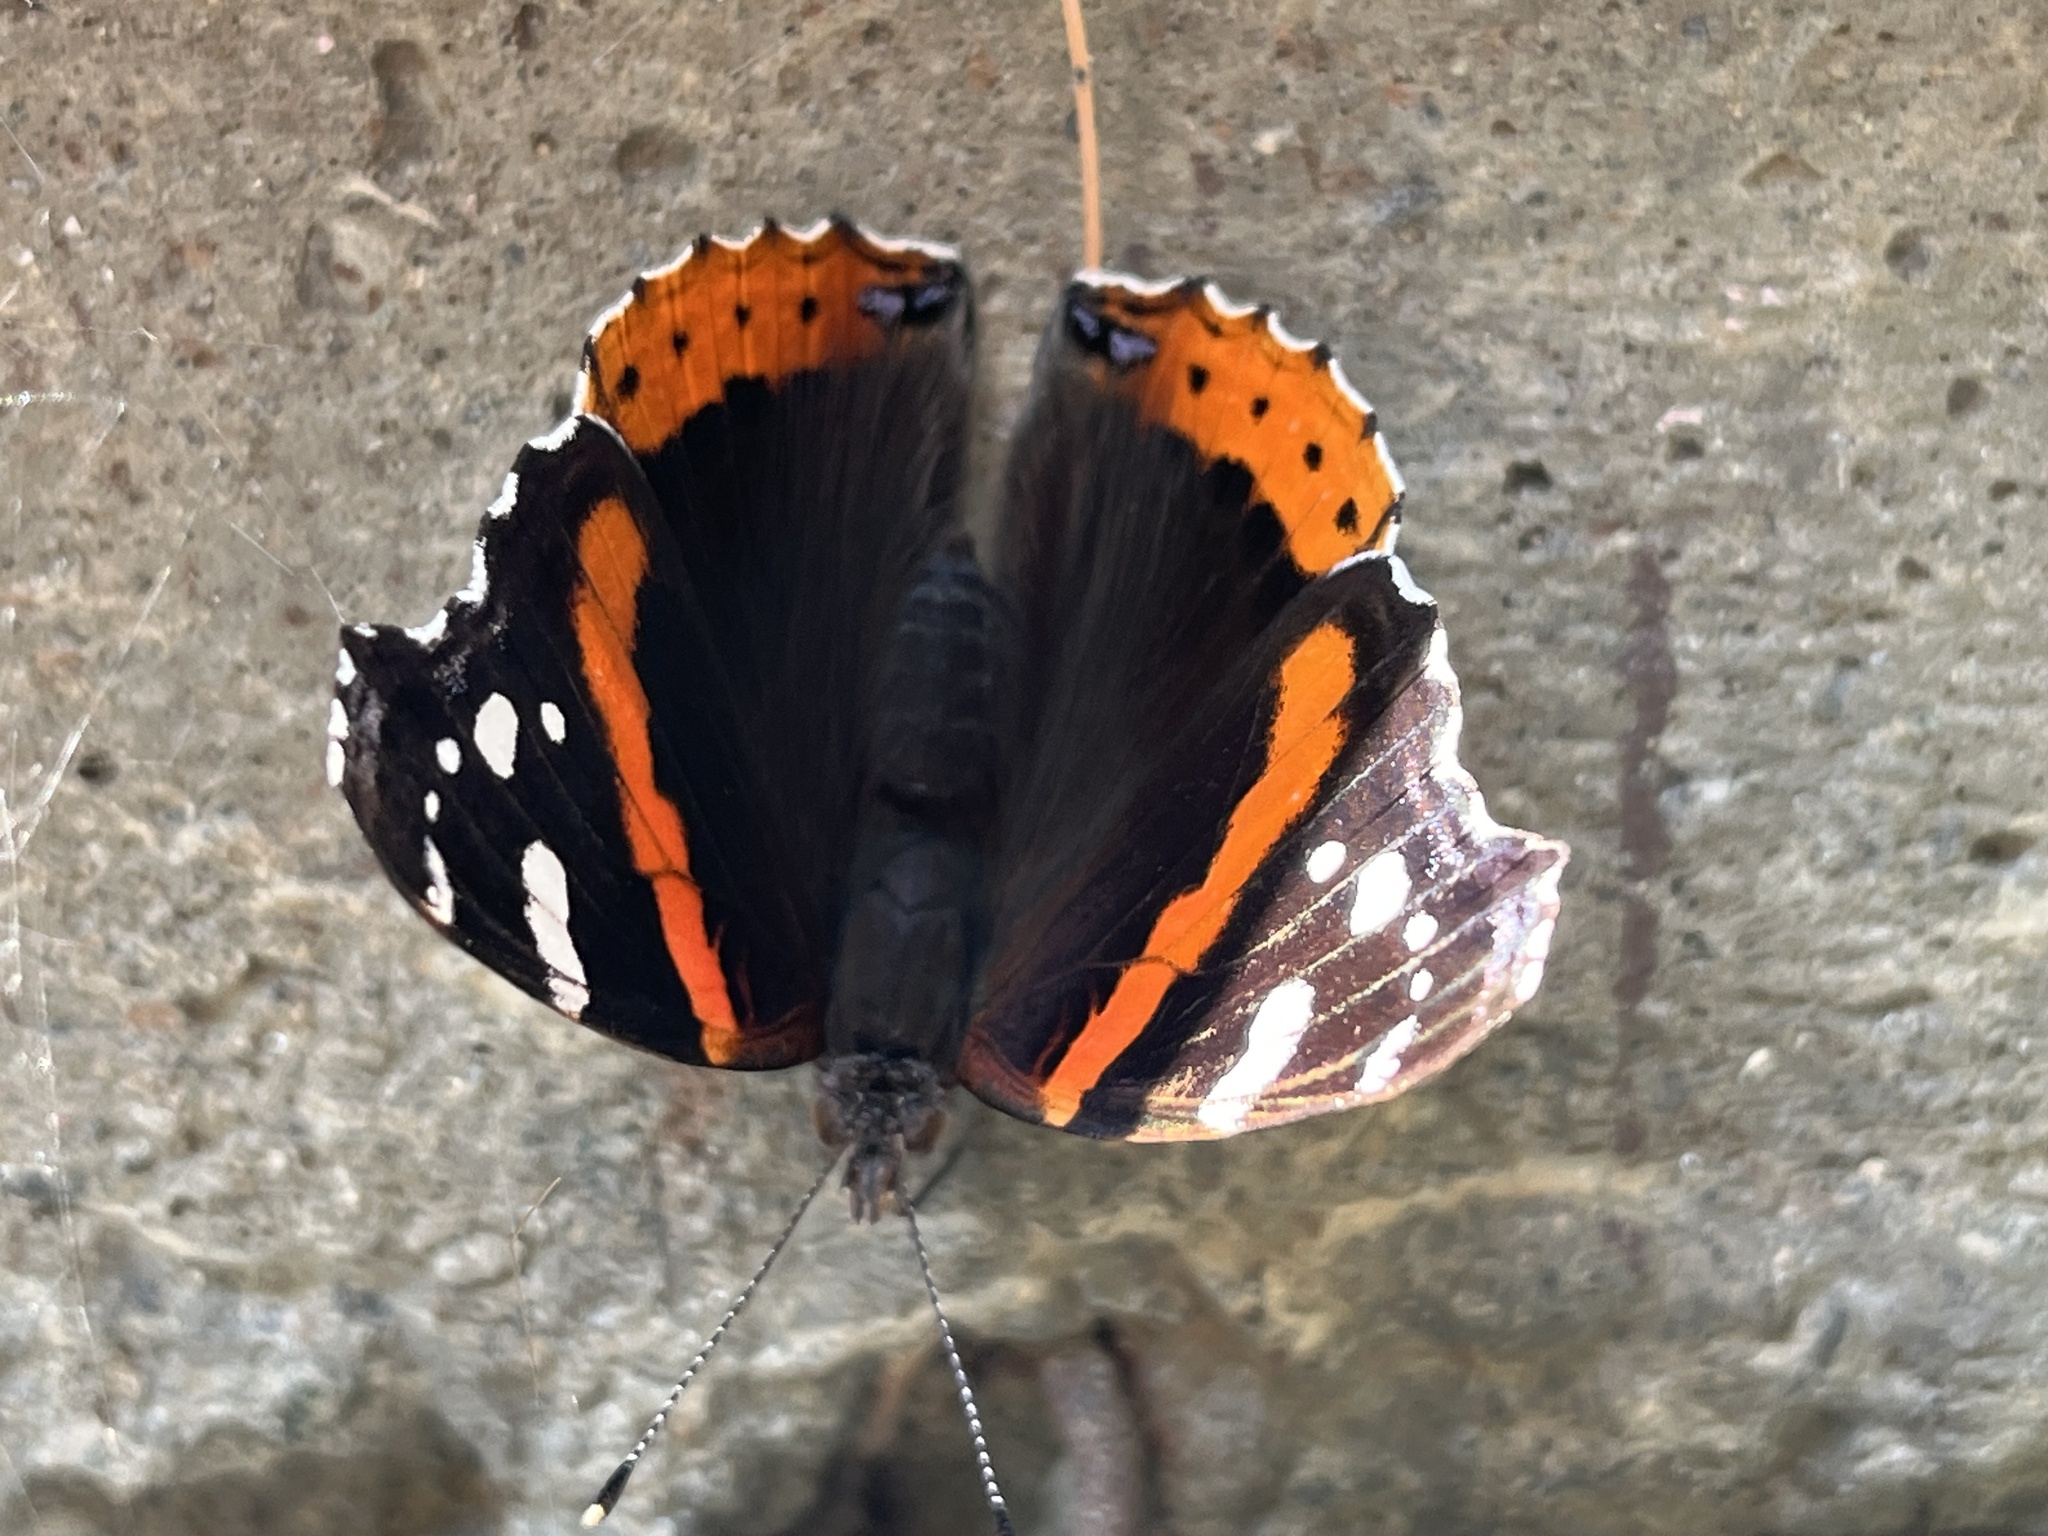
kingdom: Animalia
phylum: Arthropoda
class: Insecta
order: Lepidoptera
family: Nymphalidae
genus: Vanessa
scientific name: Vanessa atalanta
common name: Red admiral
